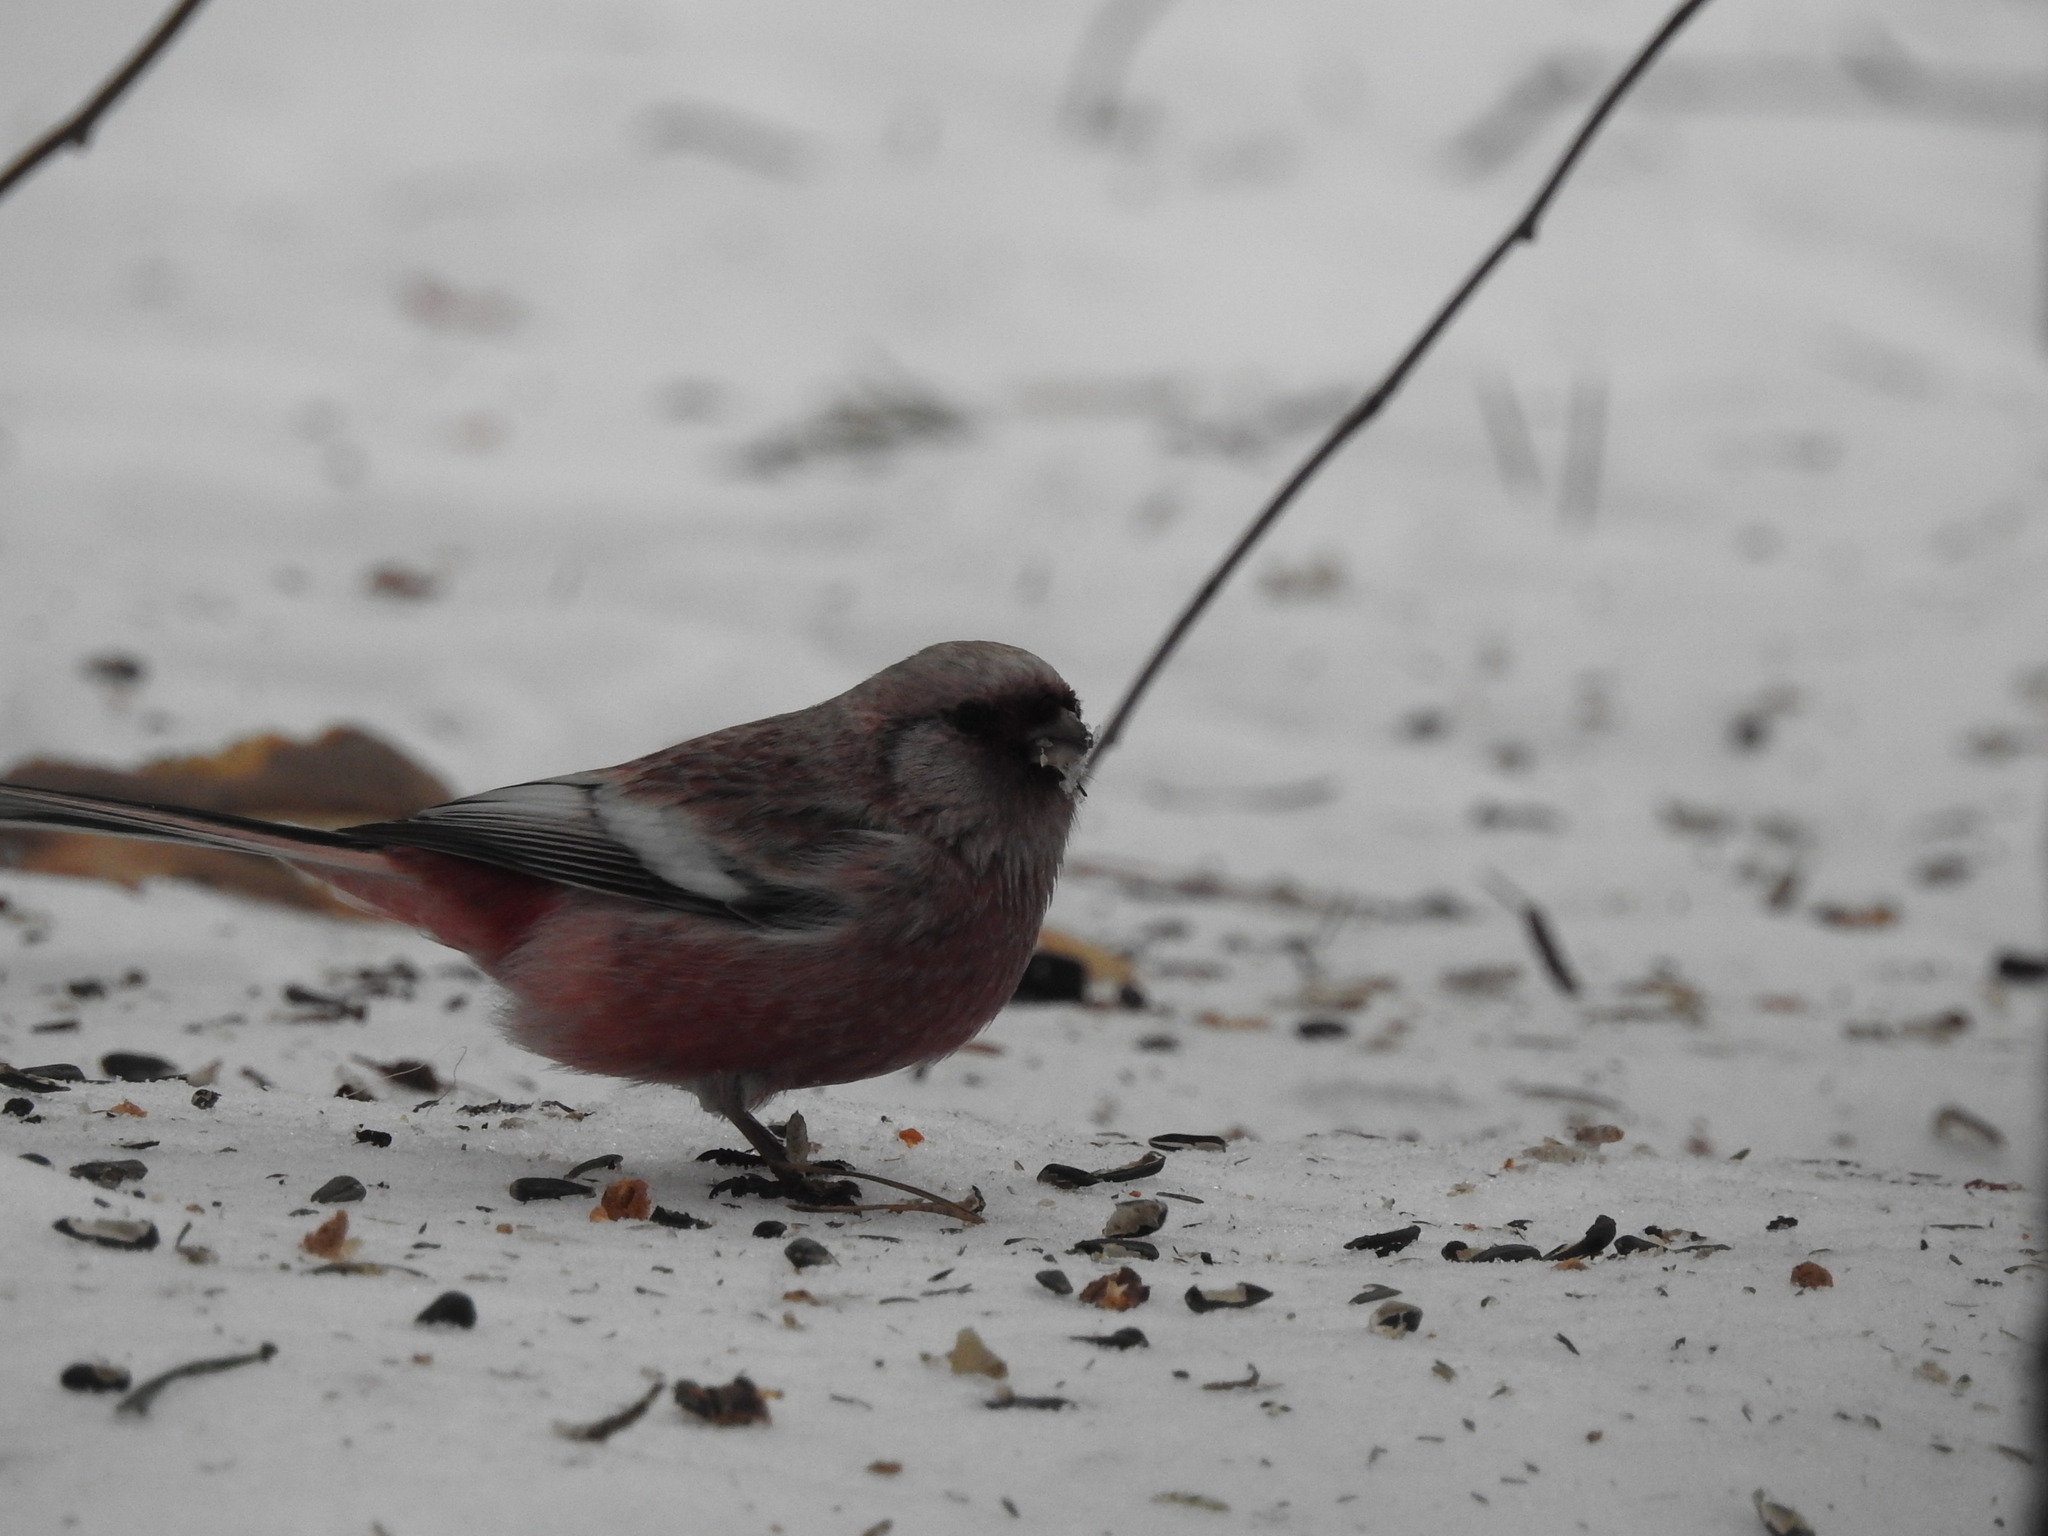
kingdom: Animalia
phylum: Chordata
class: Aves
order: Passeriformes
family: Fringillidae
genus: Carpodacus
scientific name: Carpodacus sibiricus
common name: Long-tailed rosefinch
